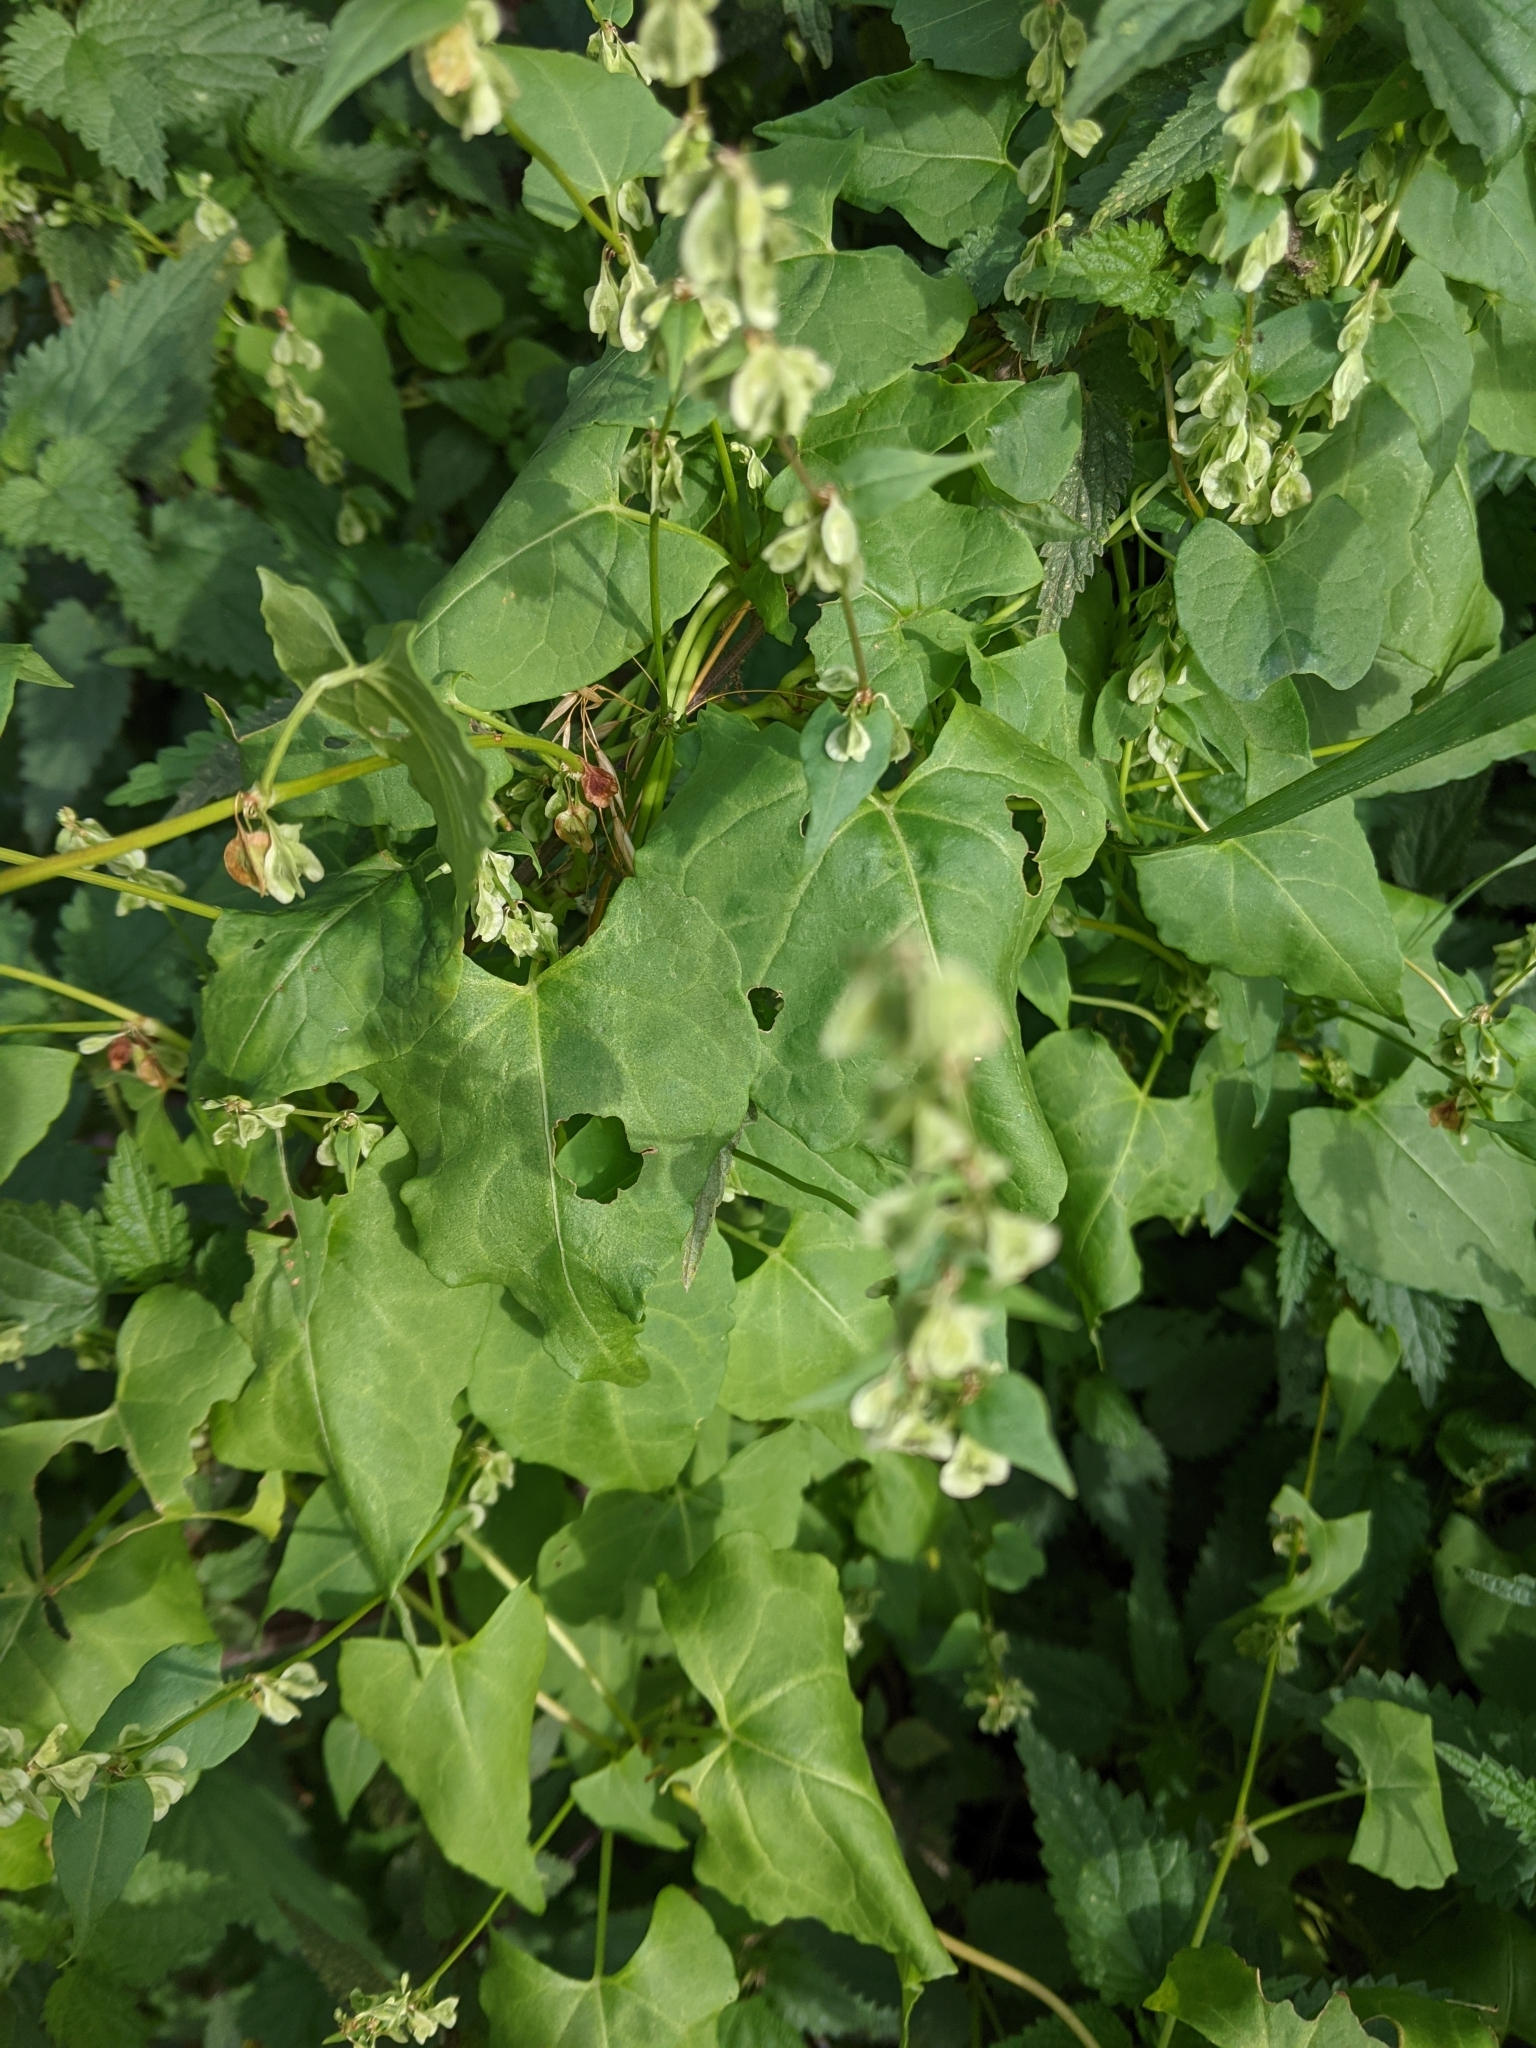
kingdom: Plantae
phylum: Tracheophyta
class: Magnoliopsida
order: Caryophyllales
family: Polygonaceae
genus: Fallopia
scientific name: Fallopia dumetorum
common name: Copse-bindweed
